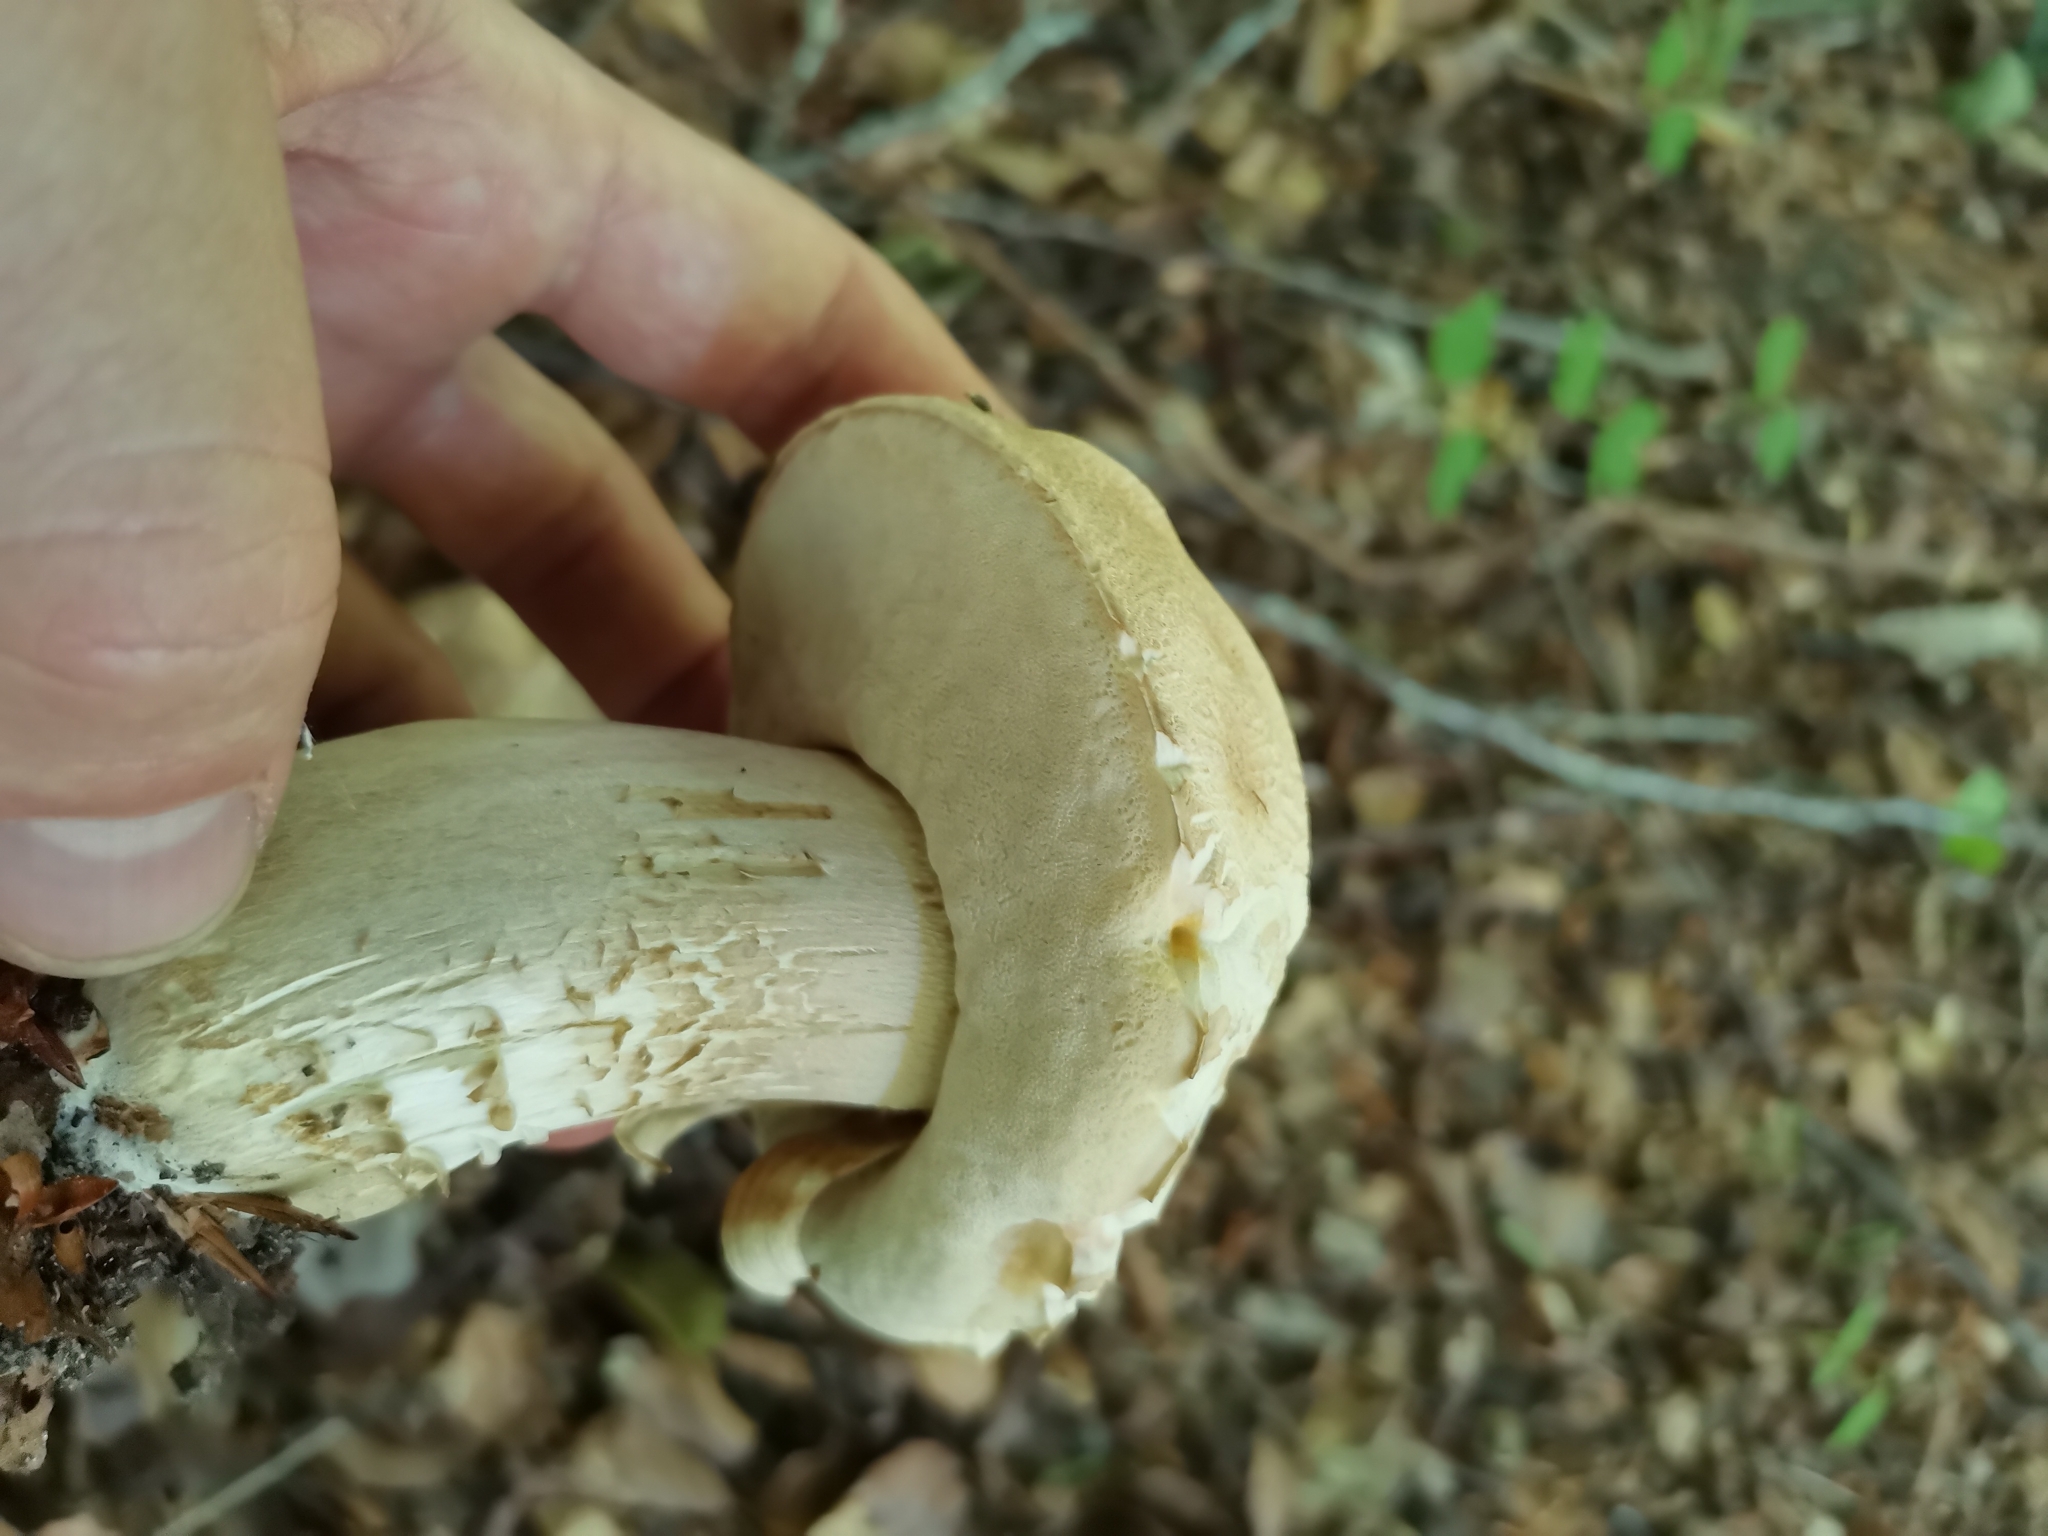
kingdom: Fungi
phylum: Basidiomycota
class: Agaricomycetes
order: Boletales
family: Boletaceae
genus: Boletus
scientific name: Boletus reticulatus
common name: Summer bolete
